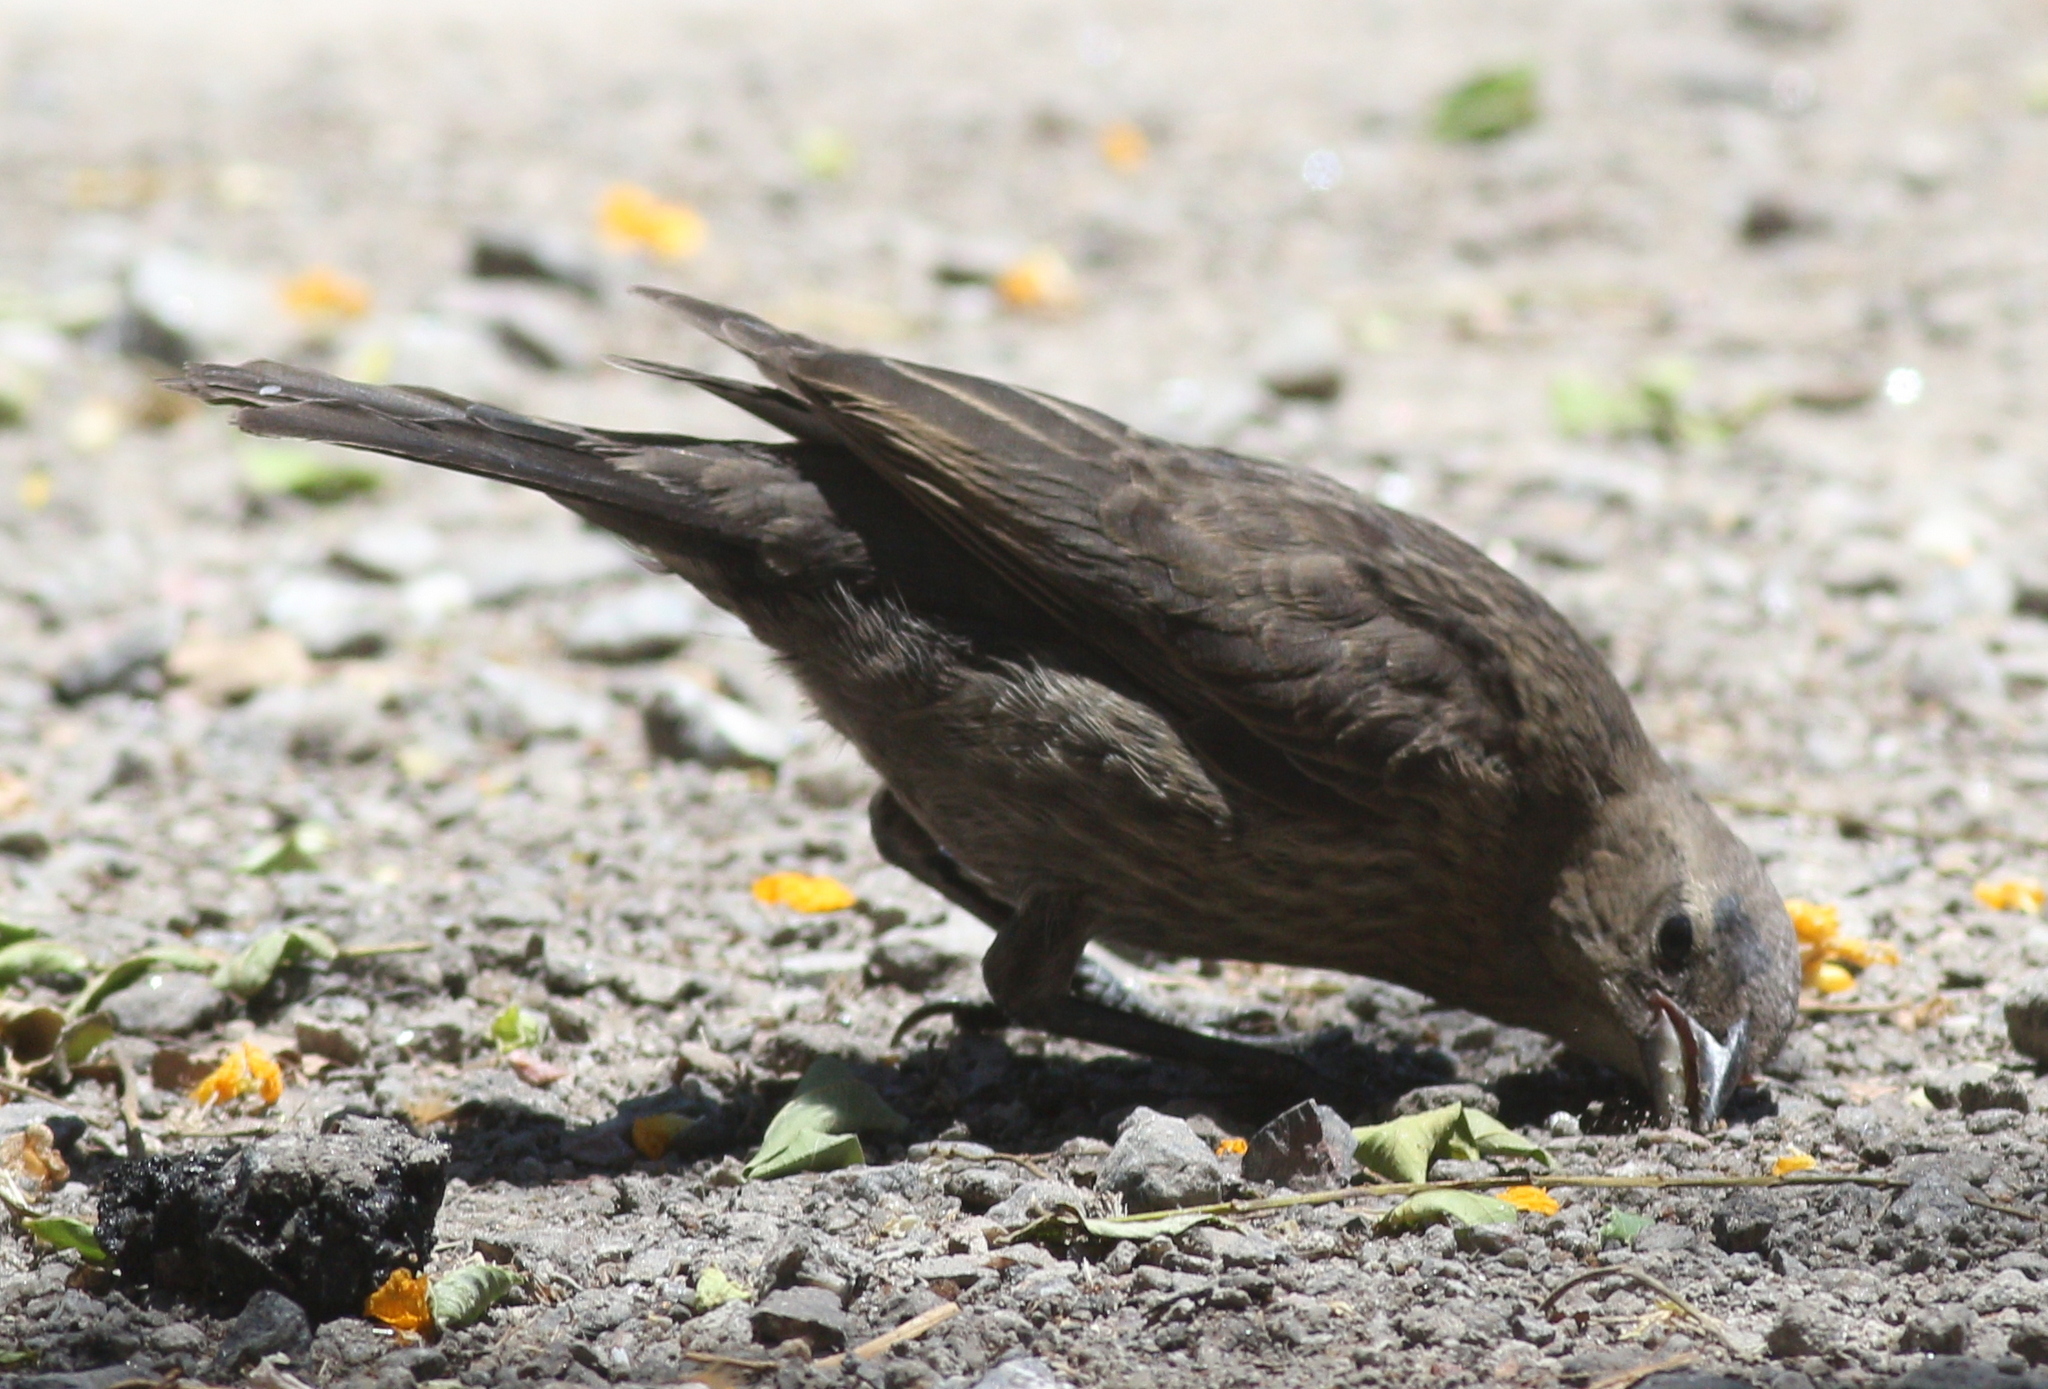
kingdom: Animalia
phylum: Chordata
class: Aves
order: Passeriformes
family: Icteridae
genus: Molothrus
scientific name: Molothrus bonariensis
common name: Shiny cowbird
